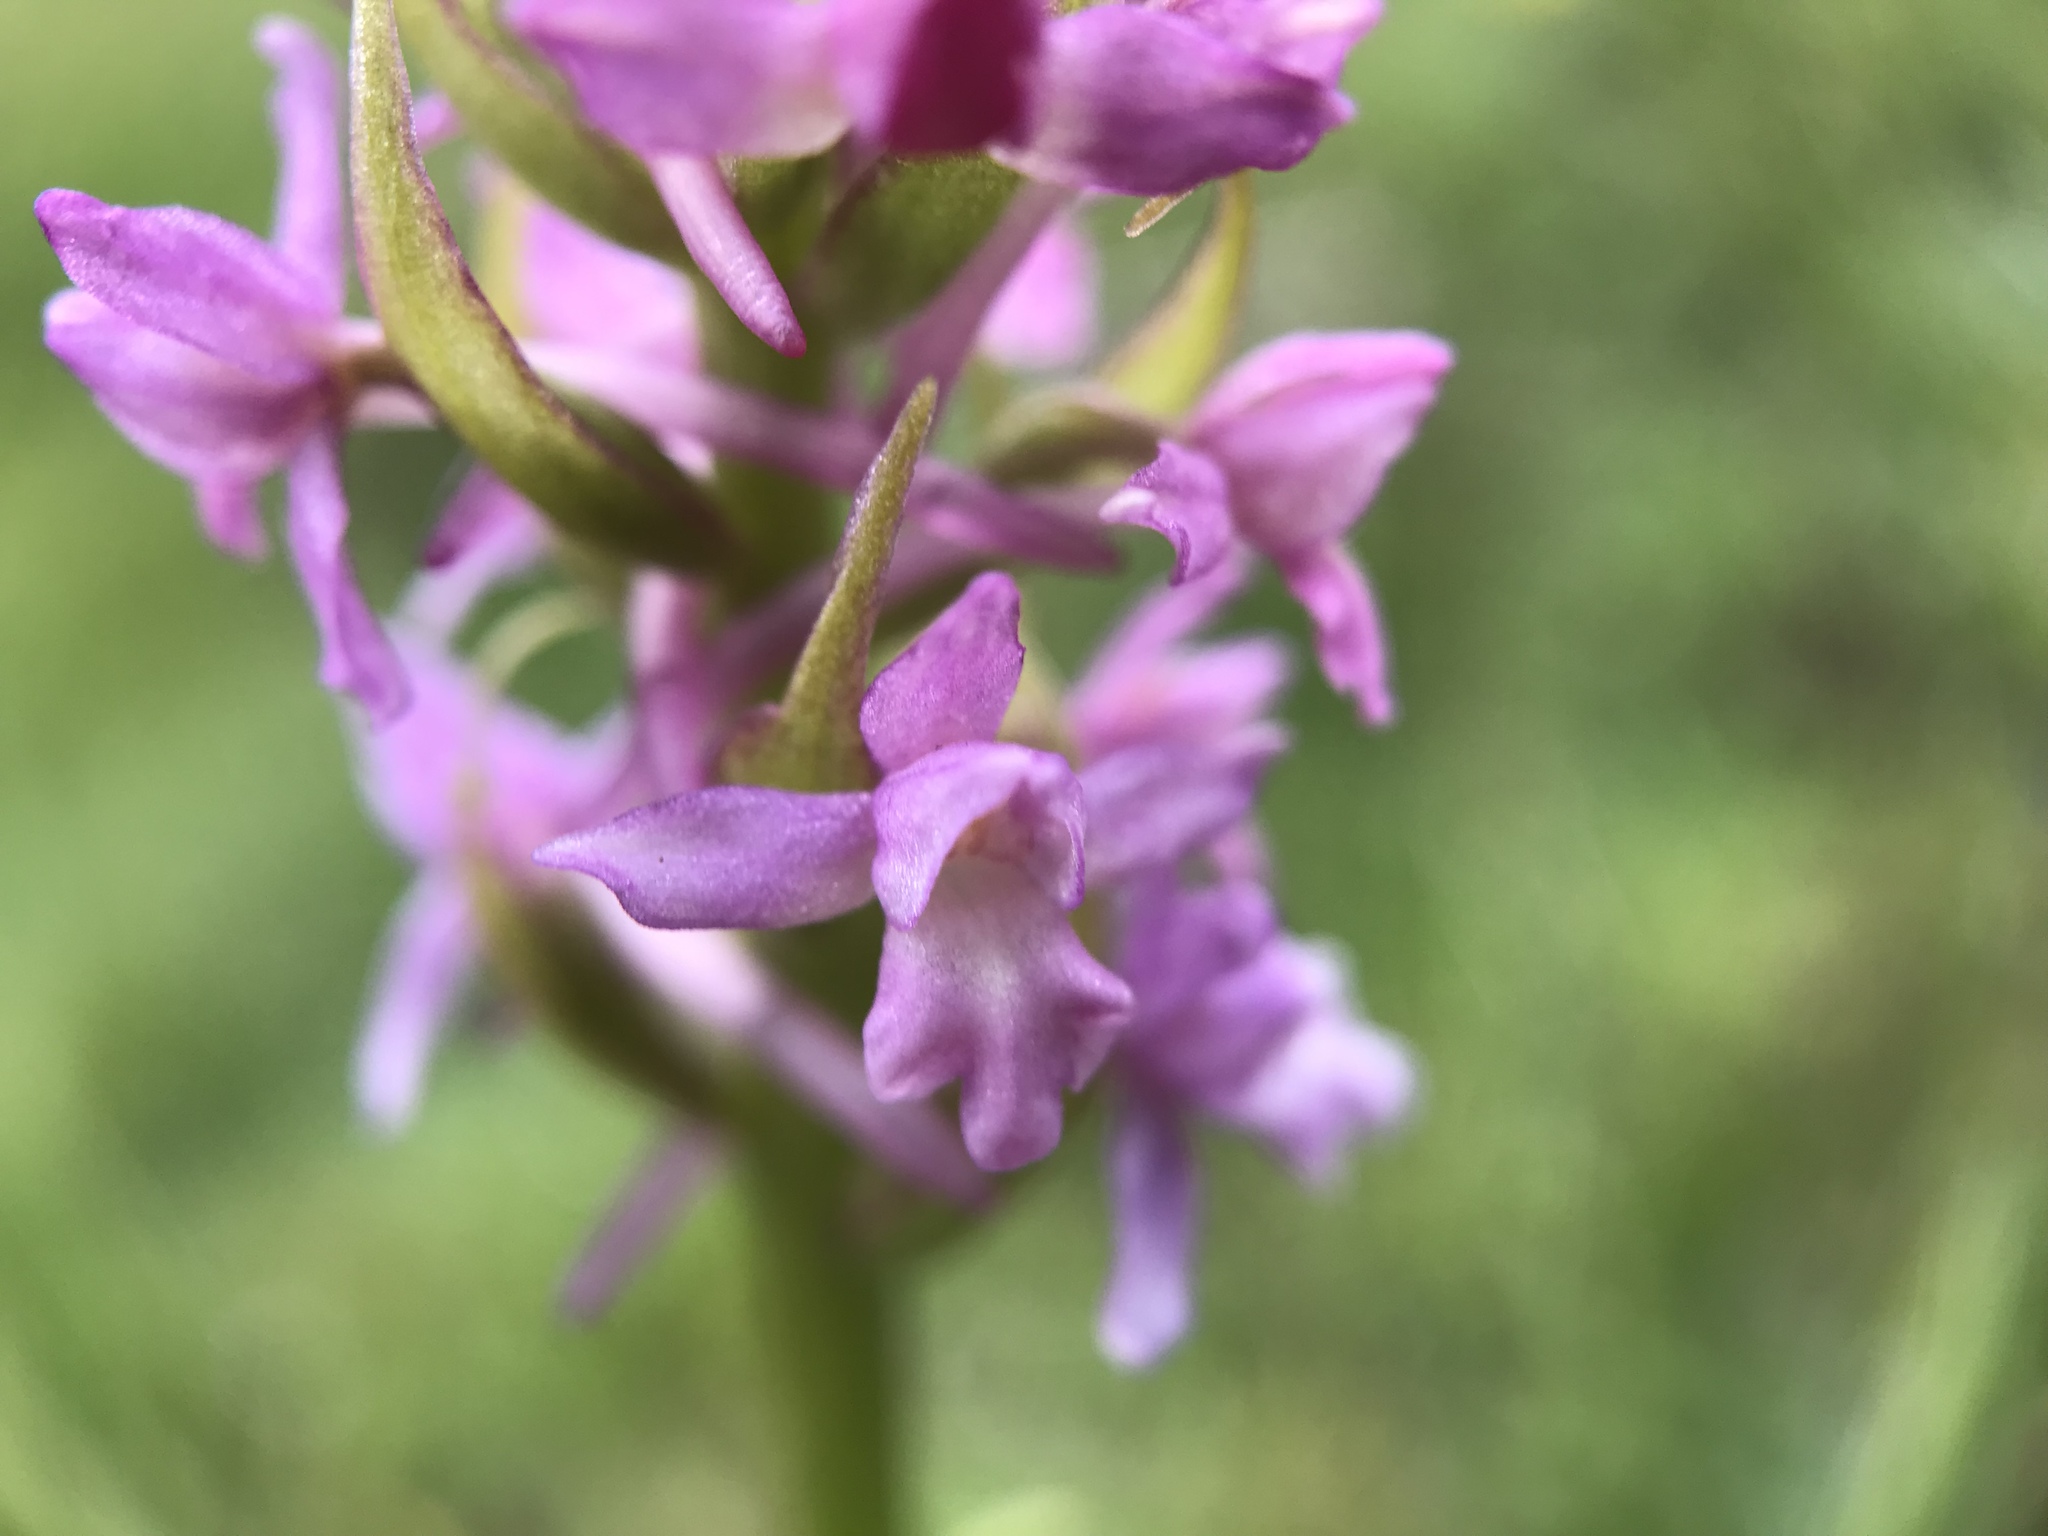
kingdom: Plantae
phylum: Tracheophyta
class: Liliopsida
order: Asparagales
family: Orchidaceae
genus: Gymnadenia
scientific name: Gymnadenia conopsea
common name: Fragrant orchid
